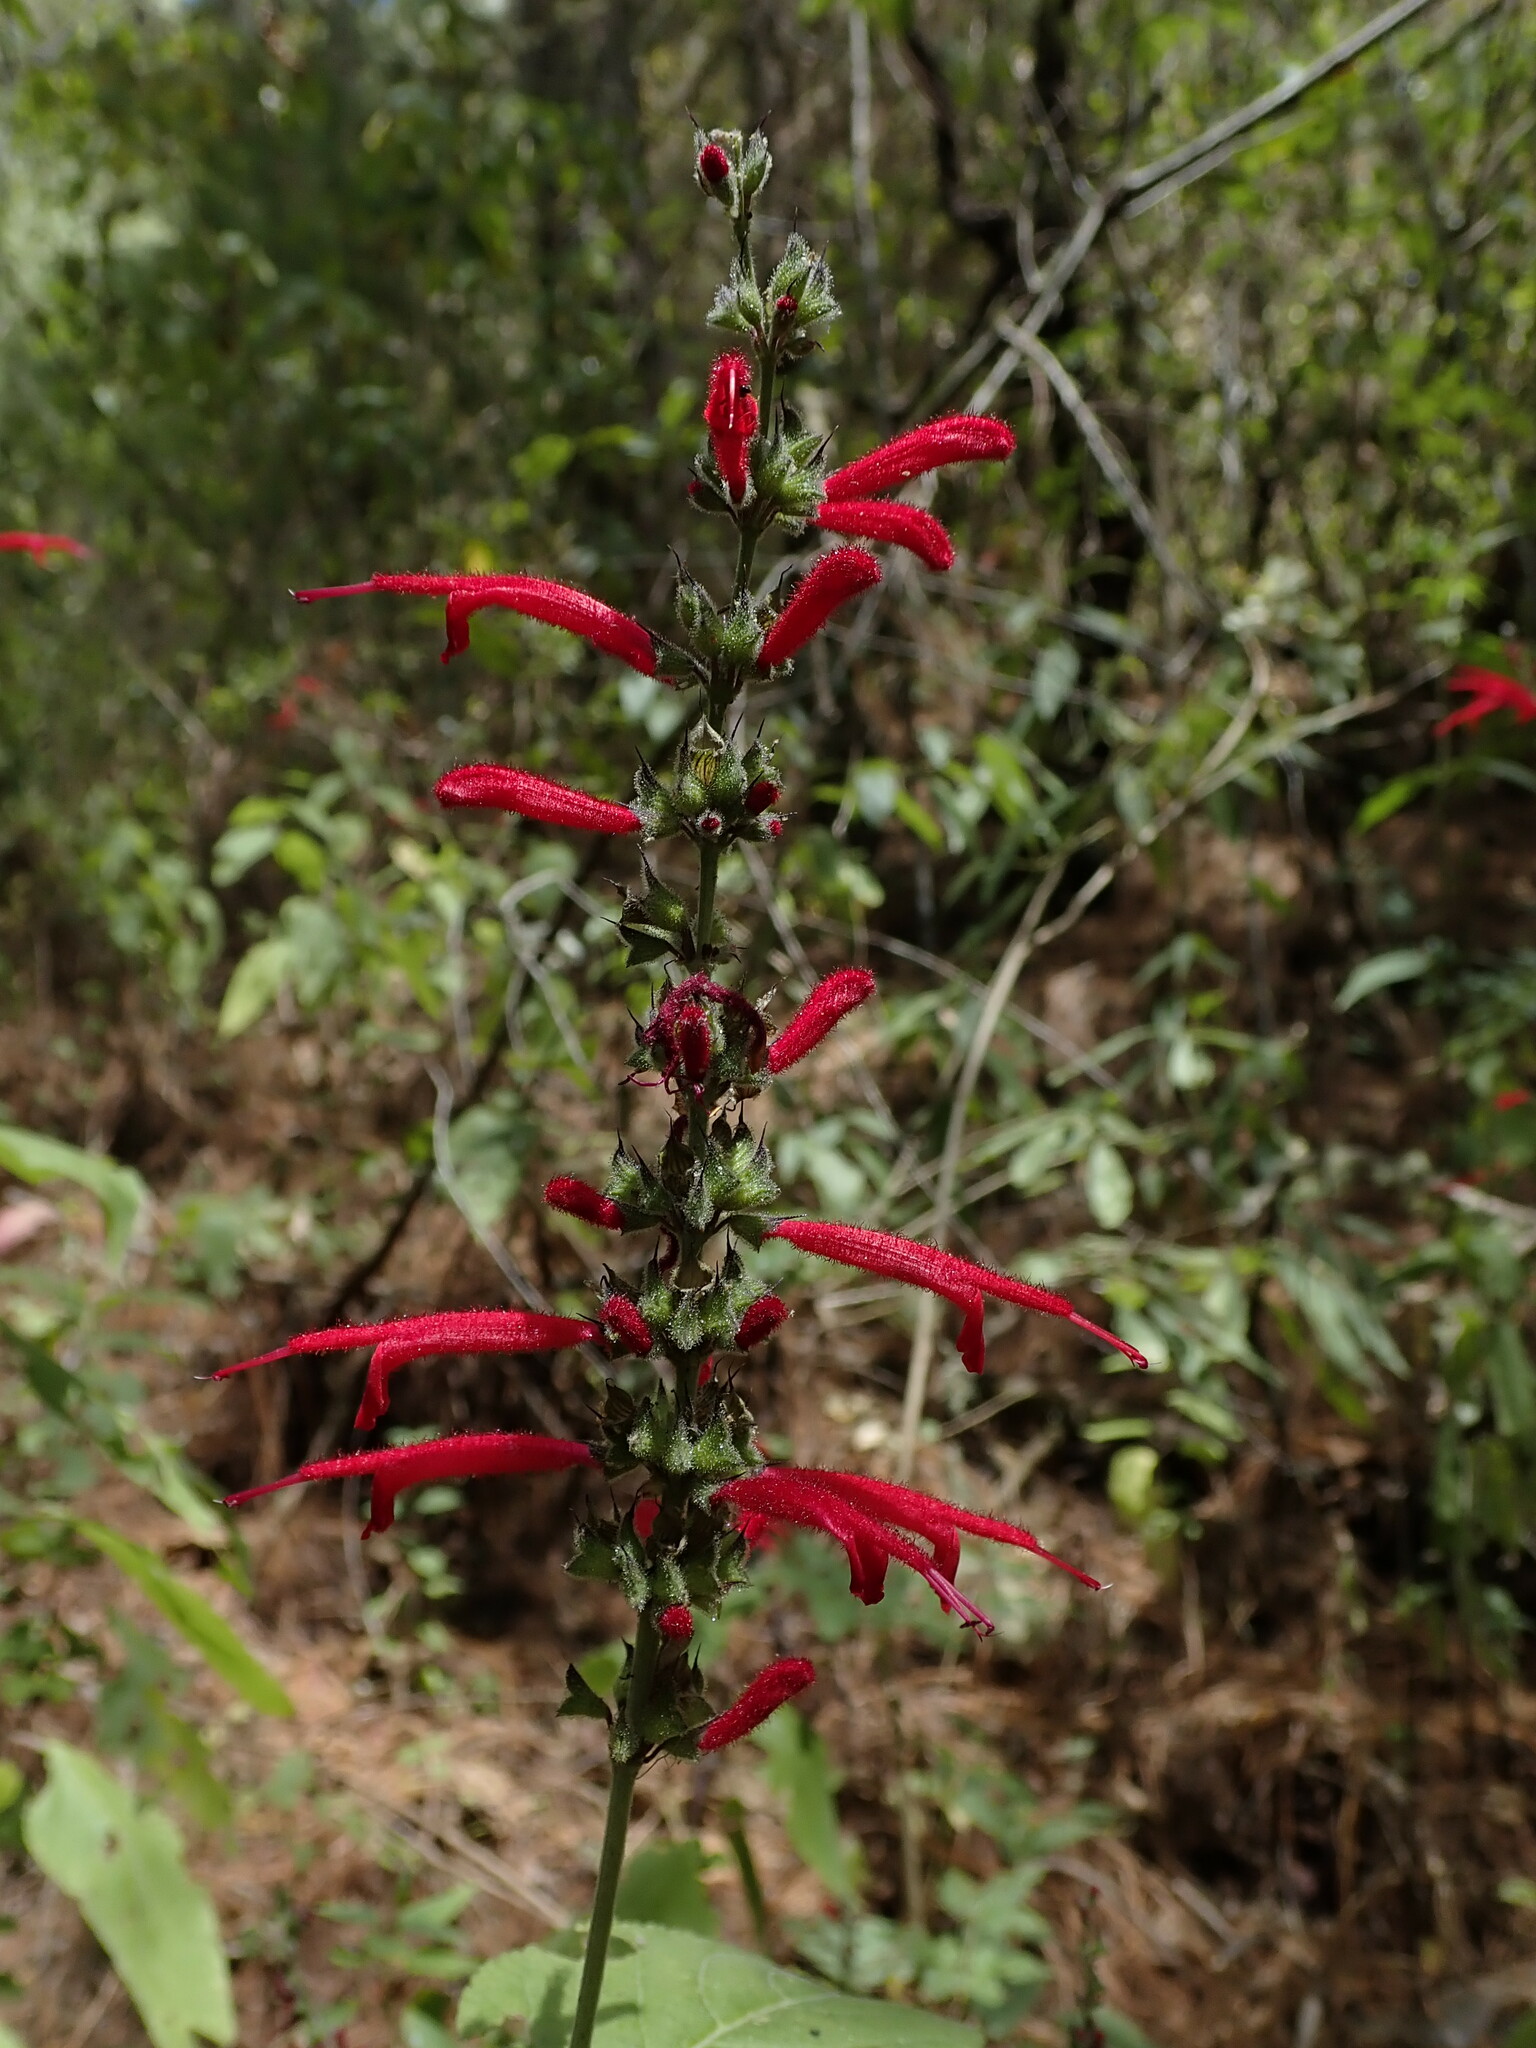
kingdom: Plantae
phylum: Tracheophyta
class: Magnoliopsida
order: Lamiales
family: Lamiaceae
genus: Salvia
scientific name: Salvia cinnabarina
